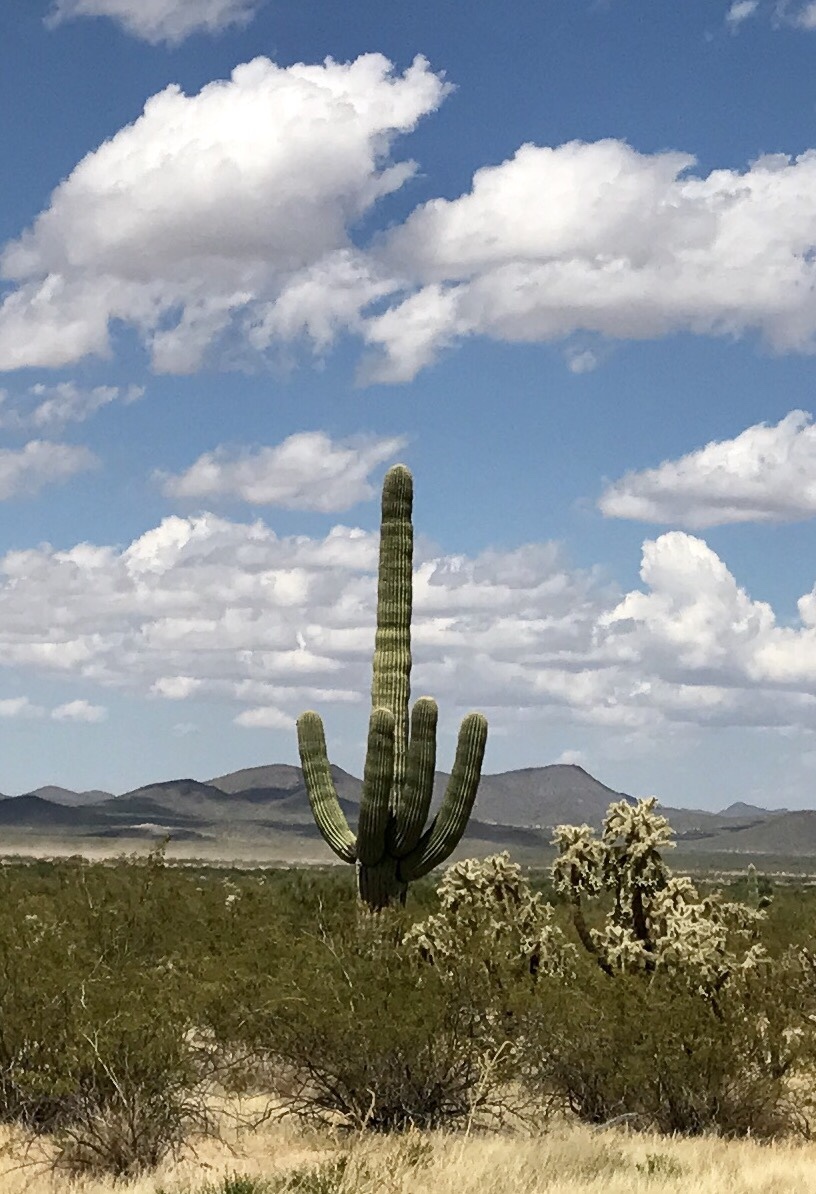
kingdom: Plantae
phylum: Tracheophyta
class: Magnoliopsida
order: Caryophyllales
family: Cactaceae
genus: Carnegiea
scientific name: Carnegiea gigantea
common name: Saguaro
